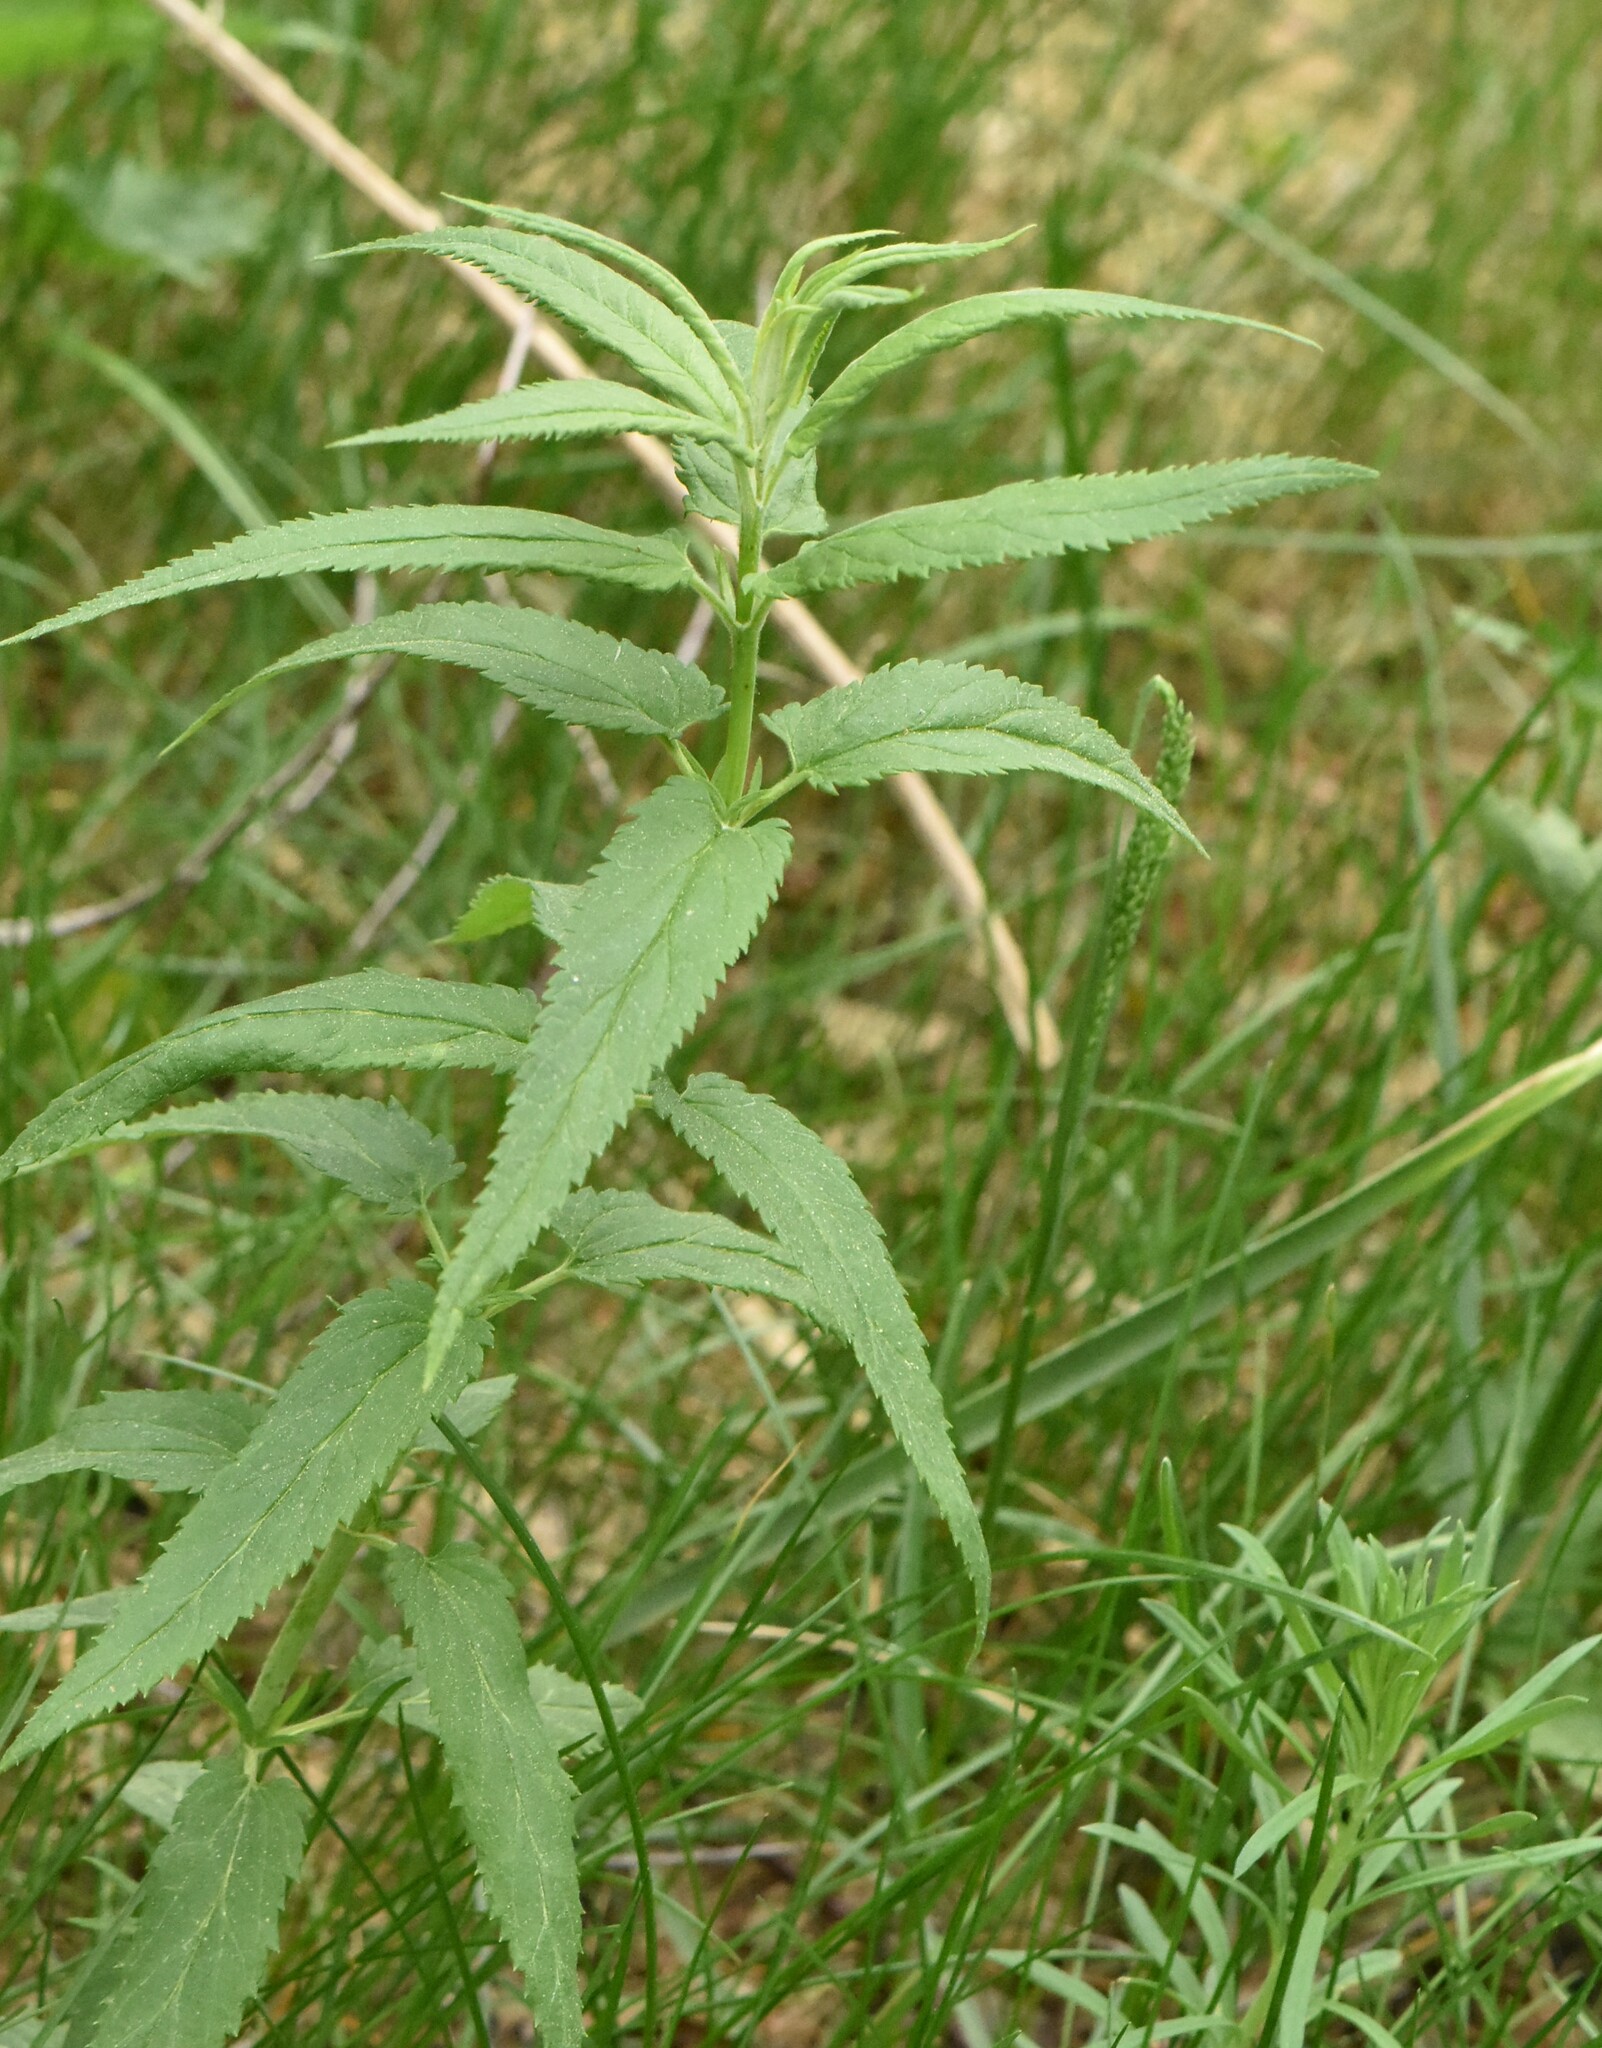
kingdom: Plantae
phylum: Tracheophyta
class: Magnoliopsida
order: Lamiales
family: Plantaginaceae
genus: Veronica
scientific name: Veronica longifolia
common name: Garden speedwell
